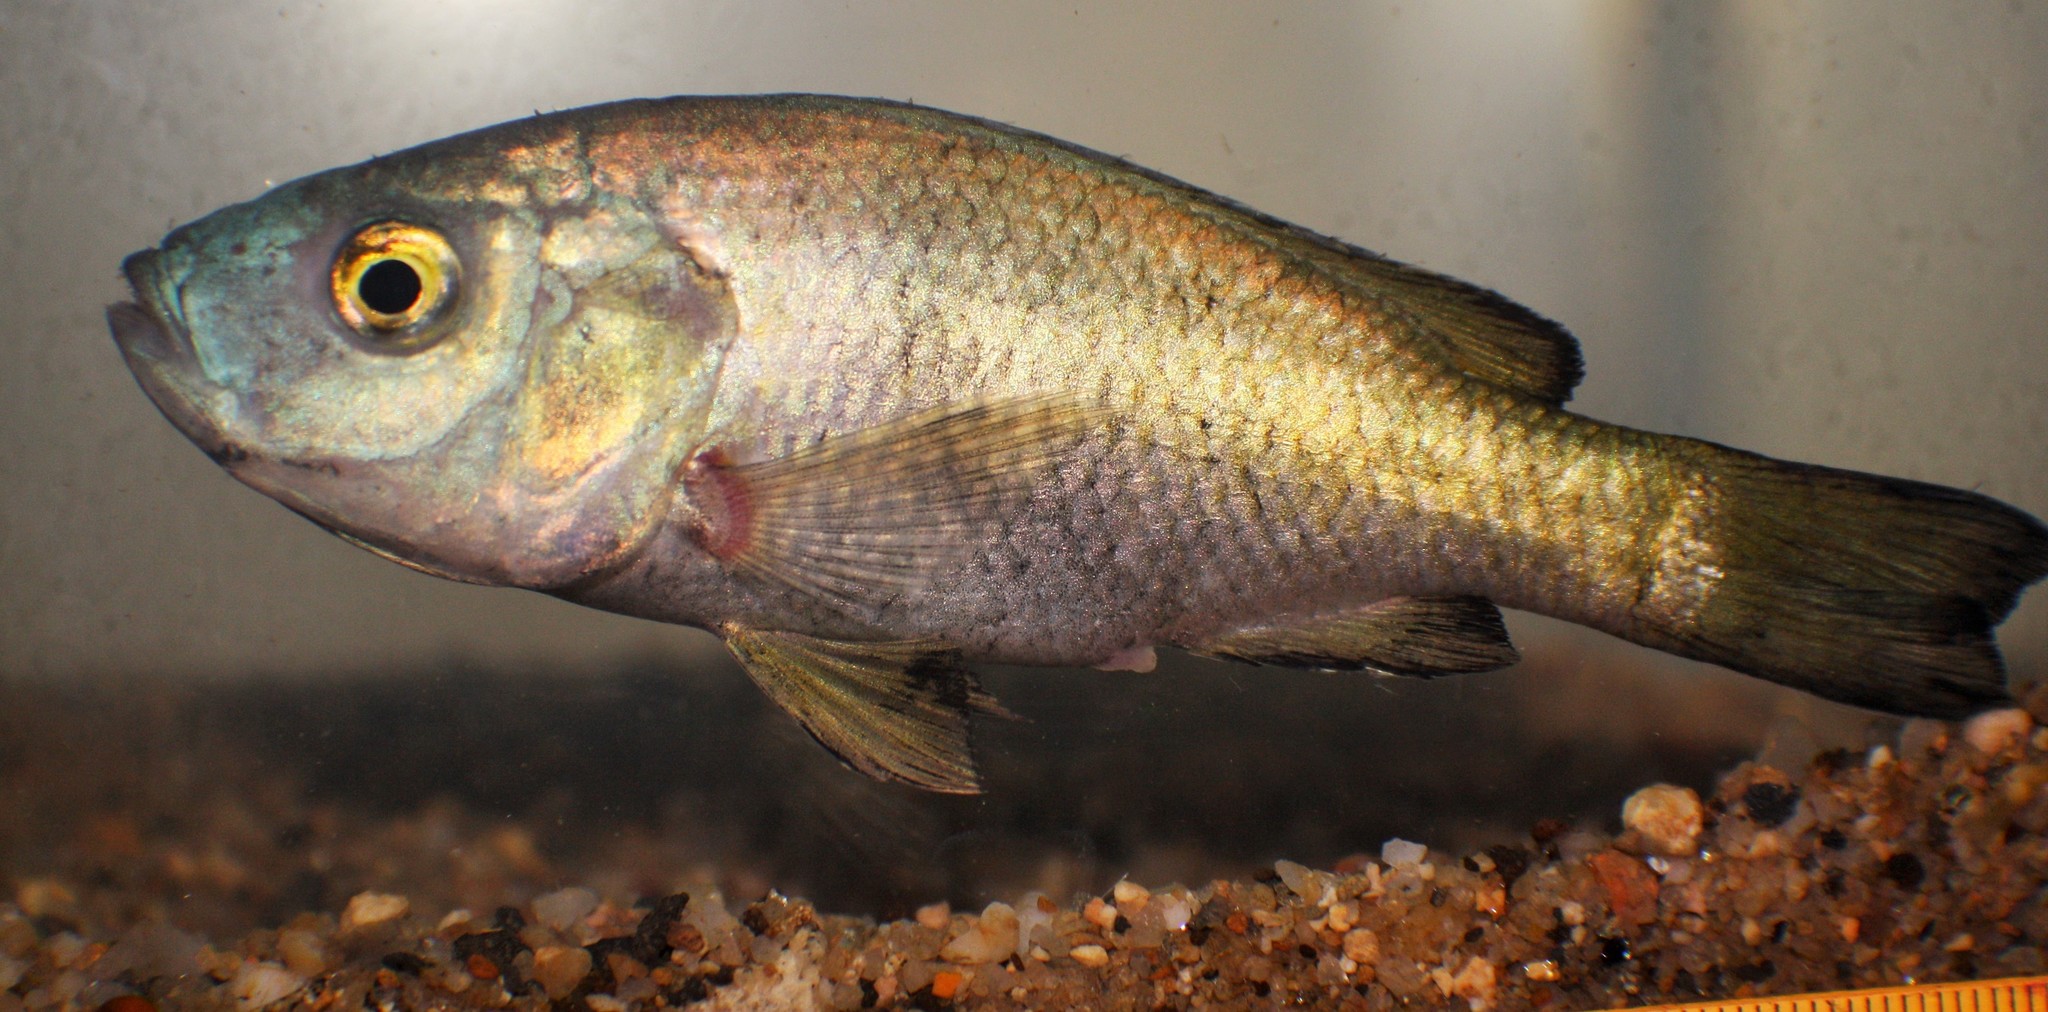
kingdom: Animalia
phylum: Chordata
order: Perciformes
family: Cichlidae
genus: Myaka
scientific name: Myaka myaka
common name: Myaka
